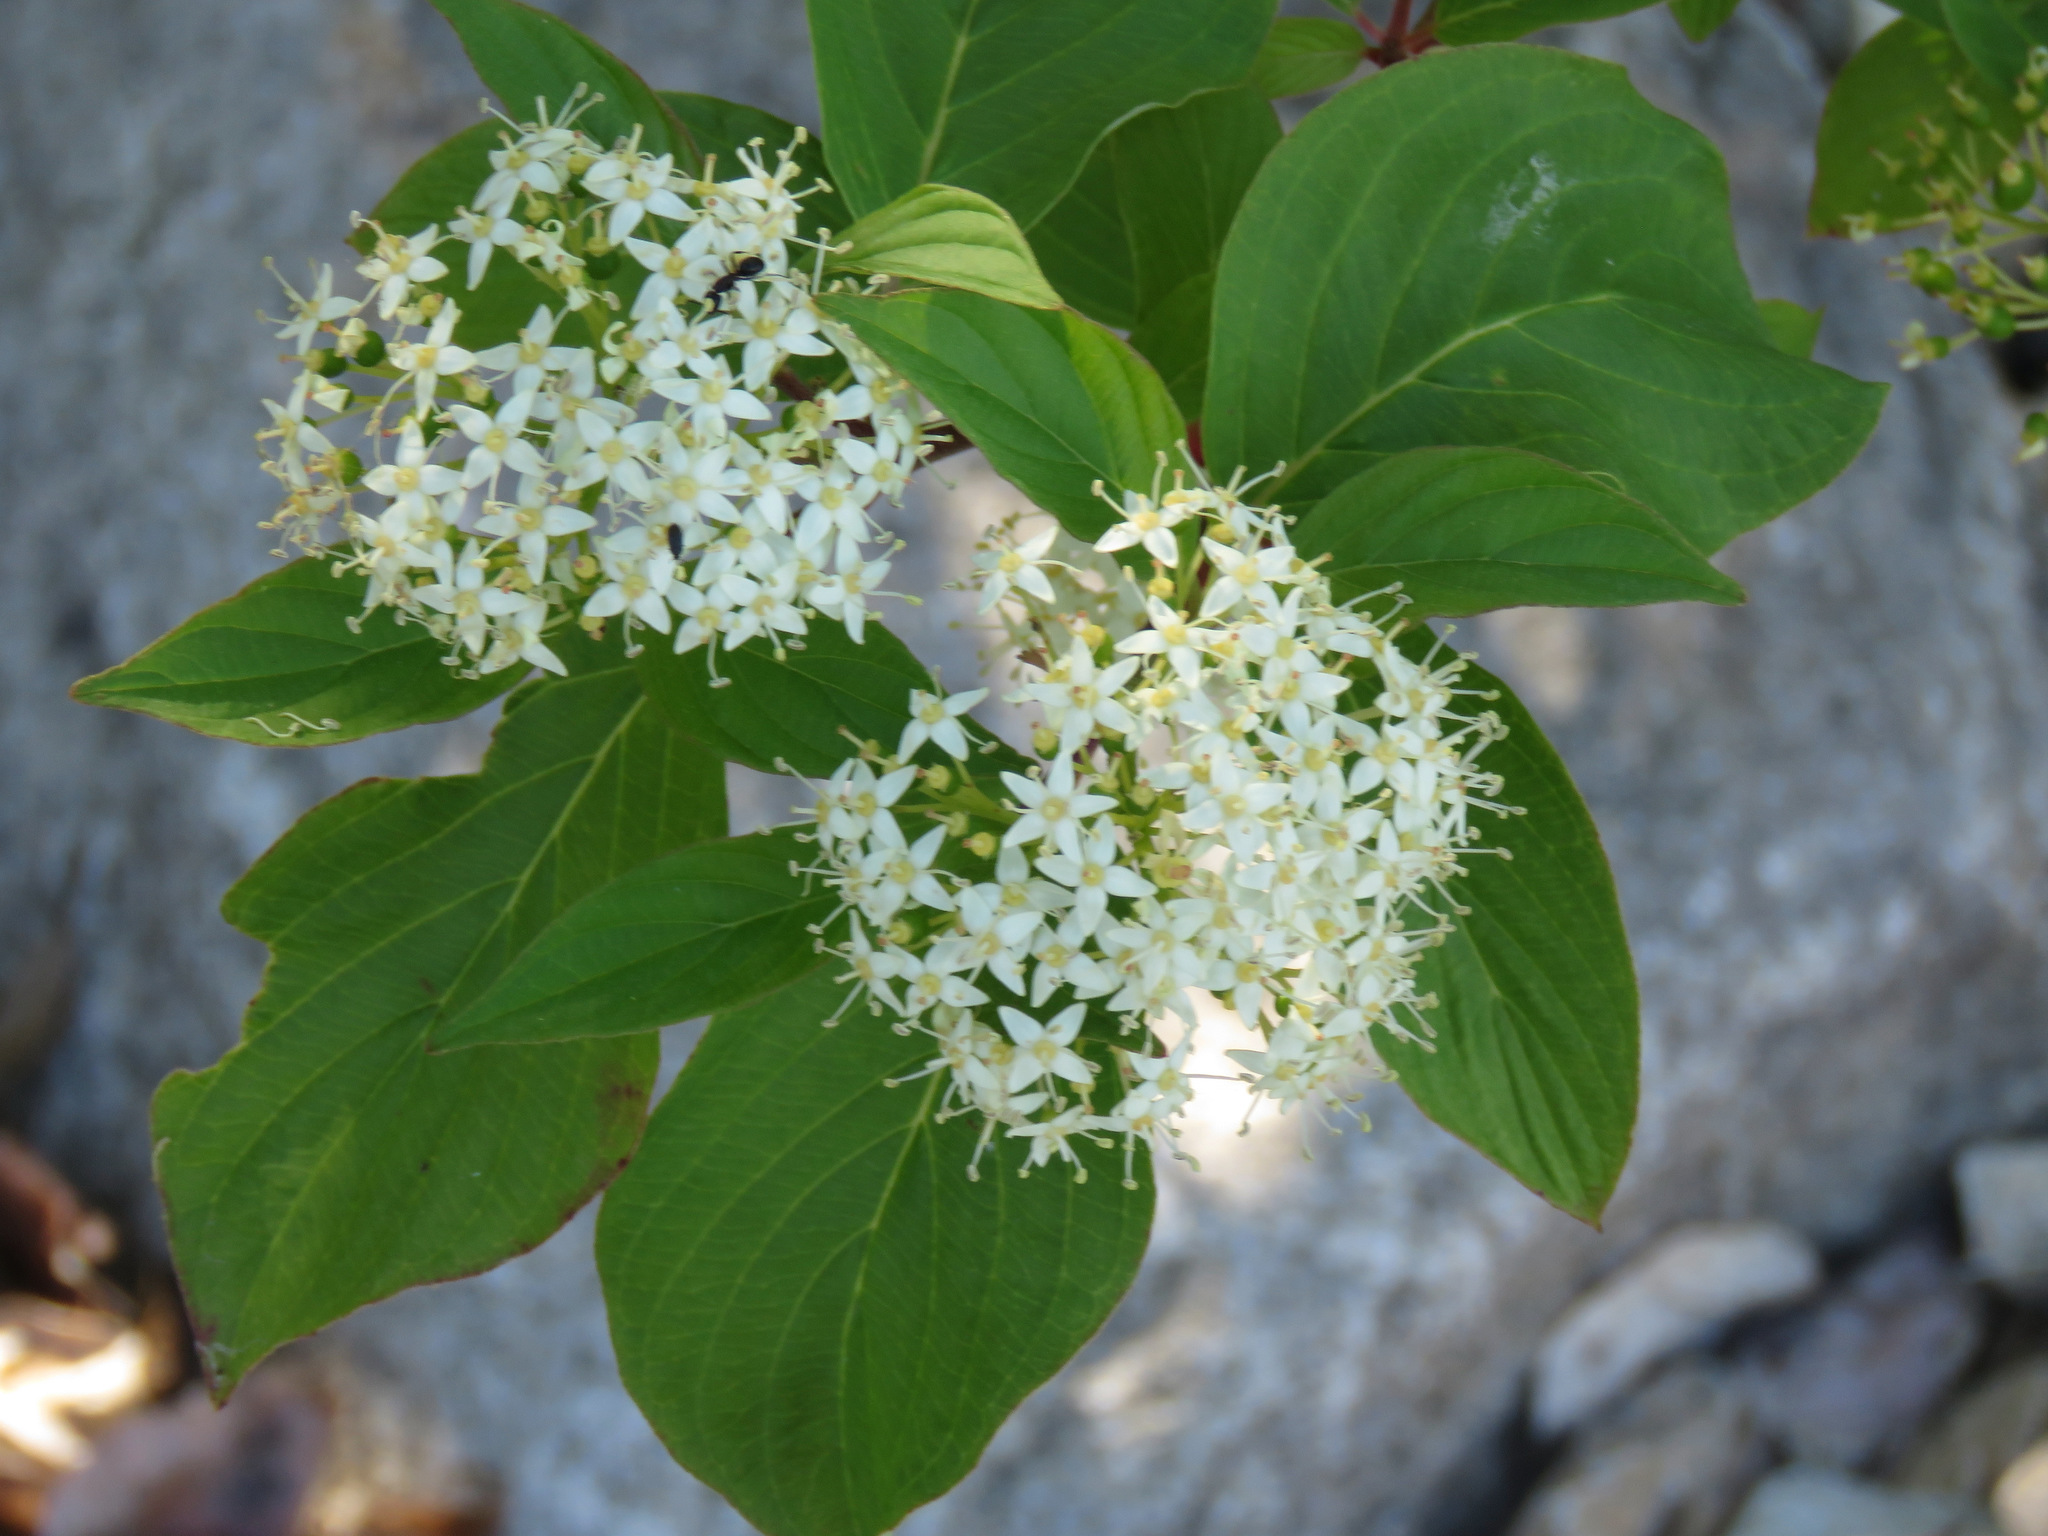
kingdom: Plantae
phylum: Tracheophyta
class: Magnoliopsida
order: Cornales
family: Cornaceae
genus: Cornus
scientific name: Cornus sericea
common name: Red-osier dogwood
